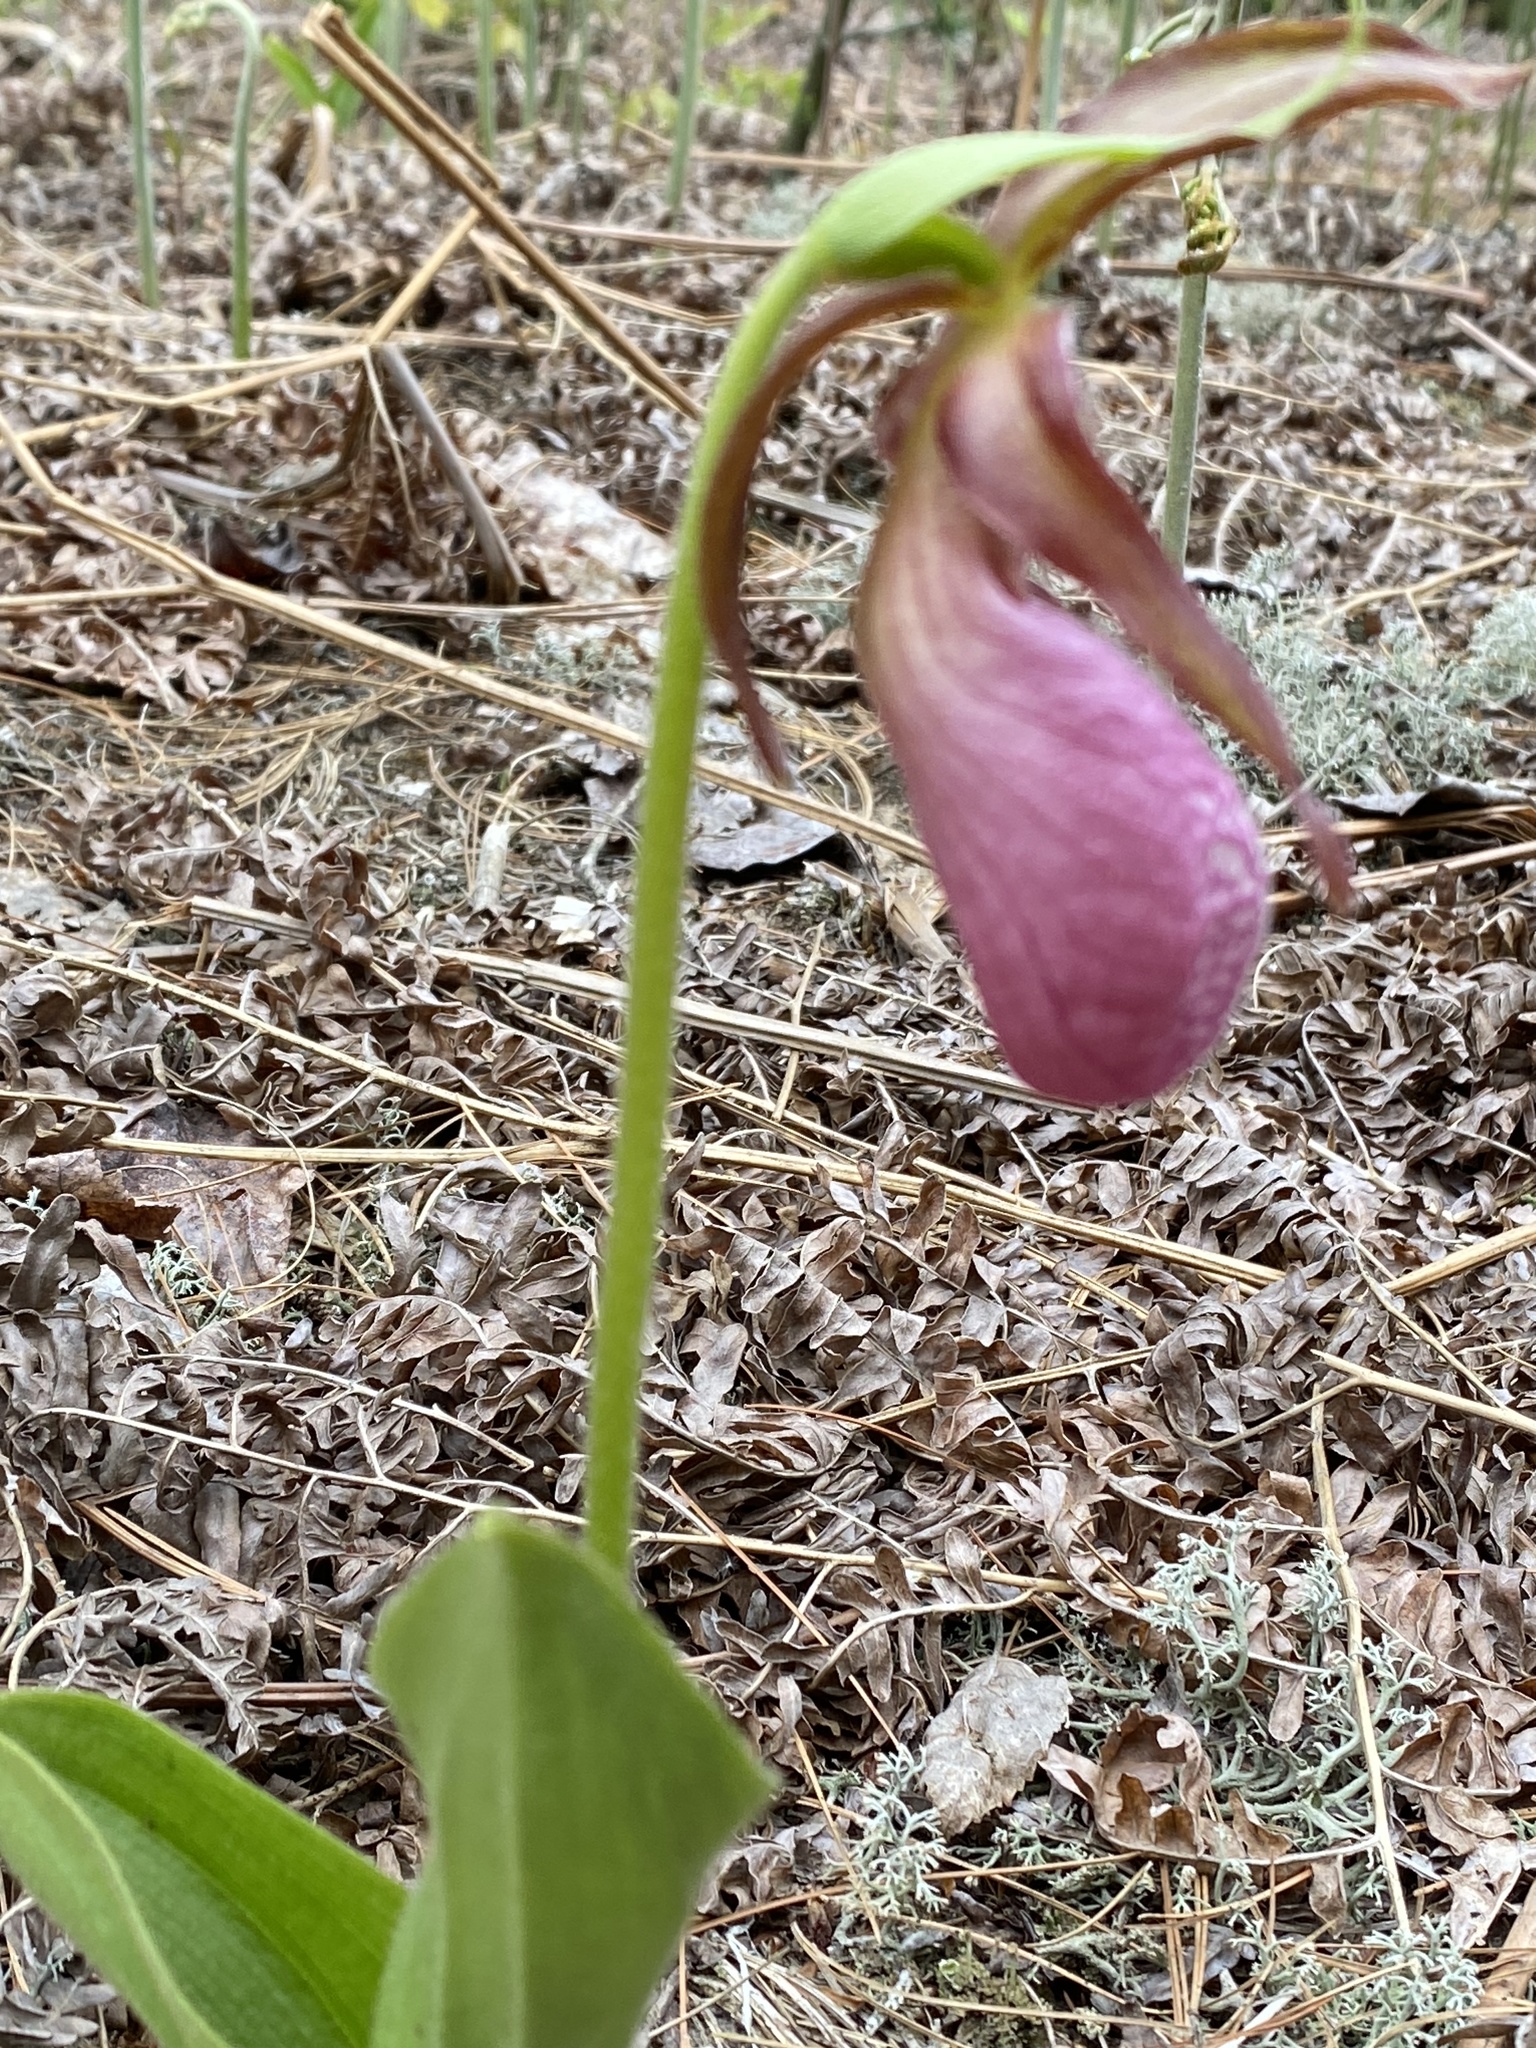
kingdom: Plantae
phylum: Tracheophyta
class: Liliopsida
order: Asparagales
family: Orchidaceae
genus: Cypripedium
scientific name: Cypripedium acaule
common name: Pink lady's-slipper
